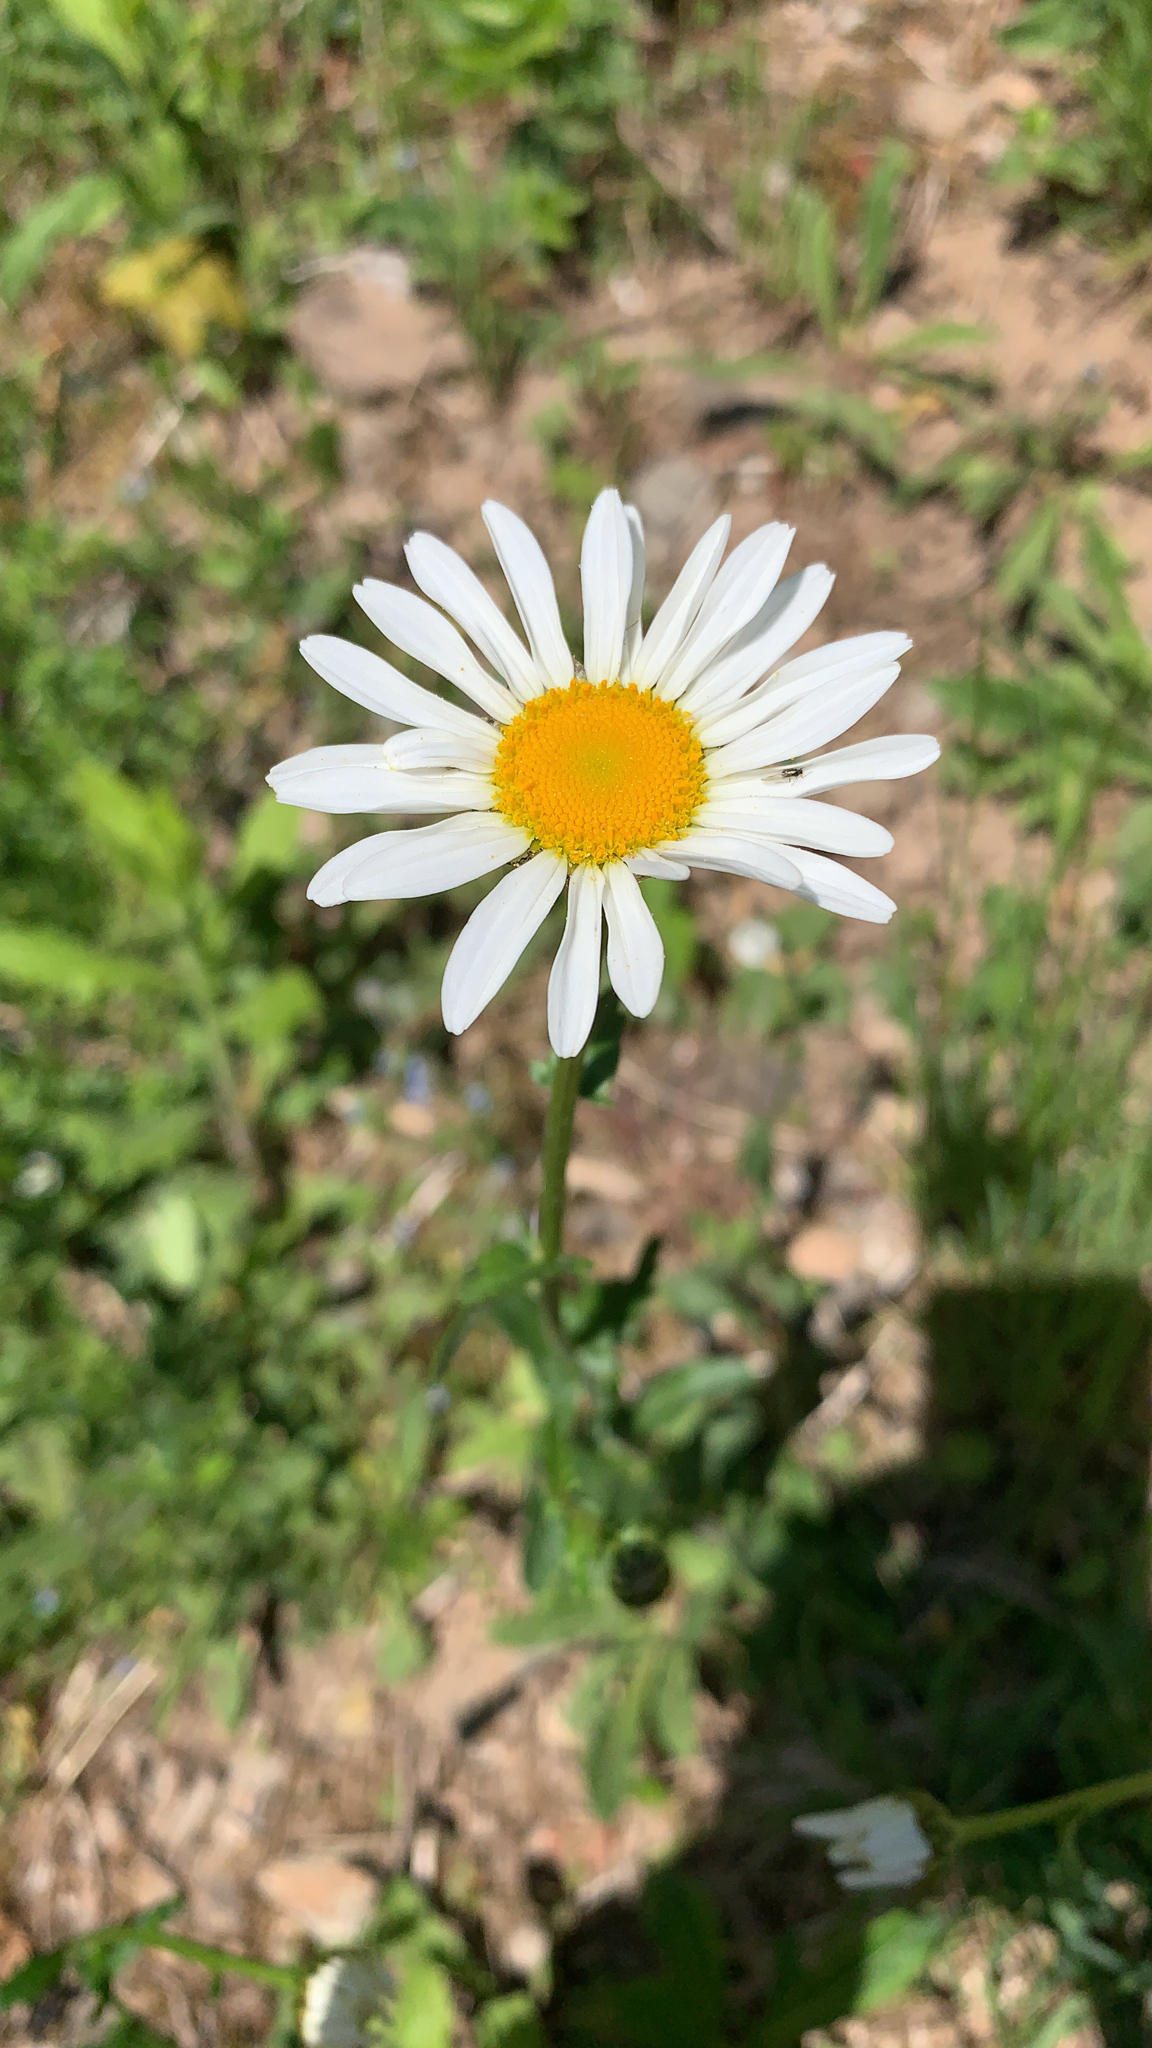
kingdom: Plantae
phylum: Tracheophyta
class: Magnoliopsida
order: Asterales
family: Asteraceae
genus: Leucanthemum
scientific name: Leucanthemum vulgare
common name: Oxeye daisy
